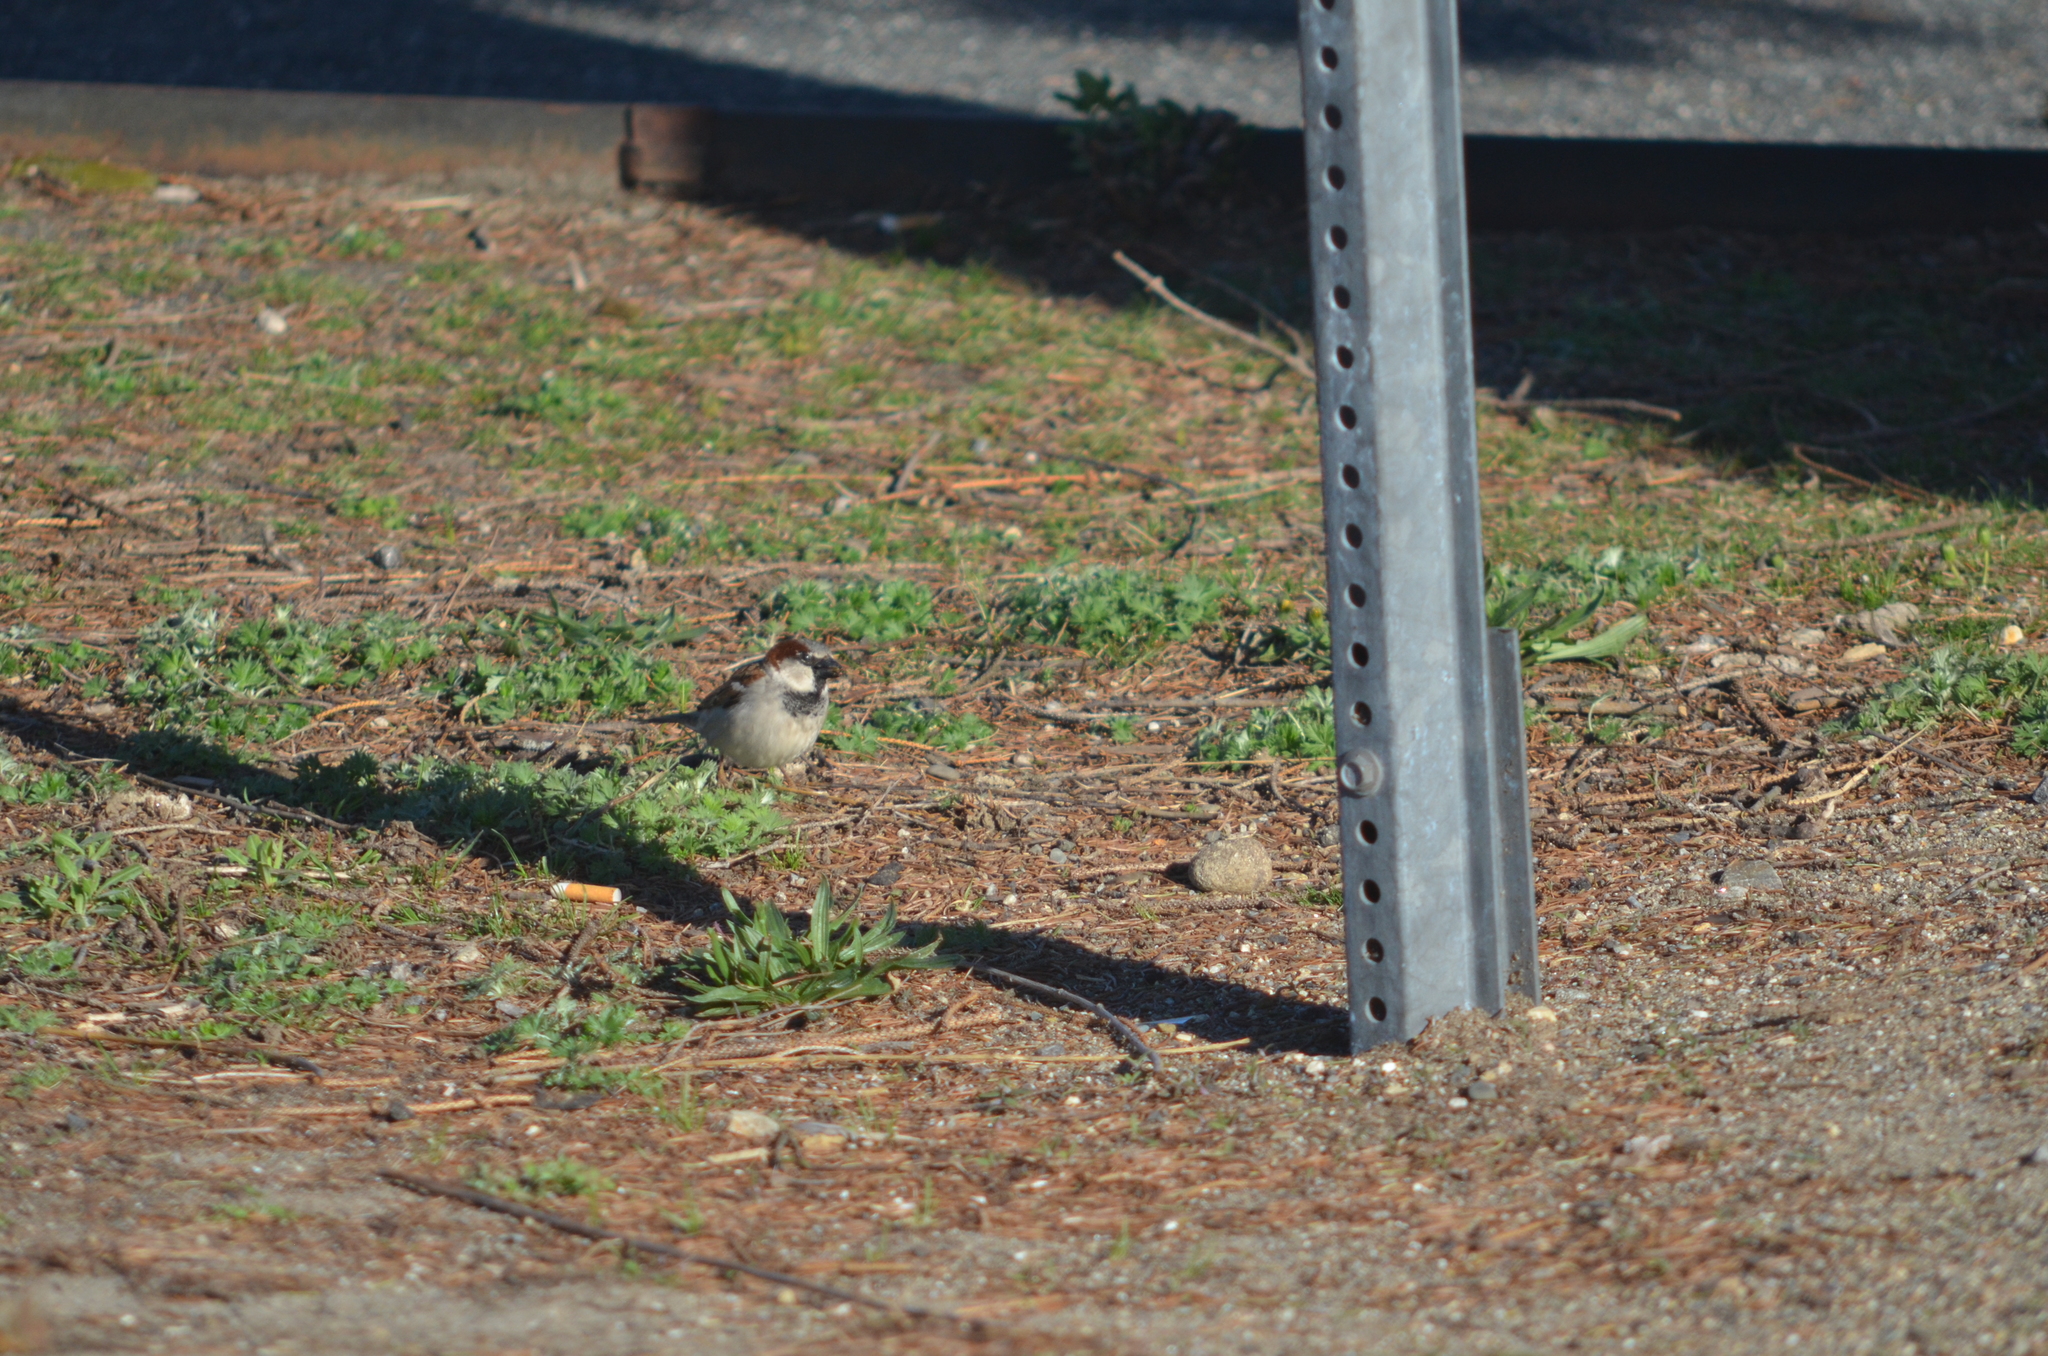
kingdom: Animalia
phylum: Chordata
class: Aves
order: Passeriformes
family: Passeridae
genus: Passer
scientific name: Passer domesticus
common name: House sparrow
